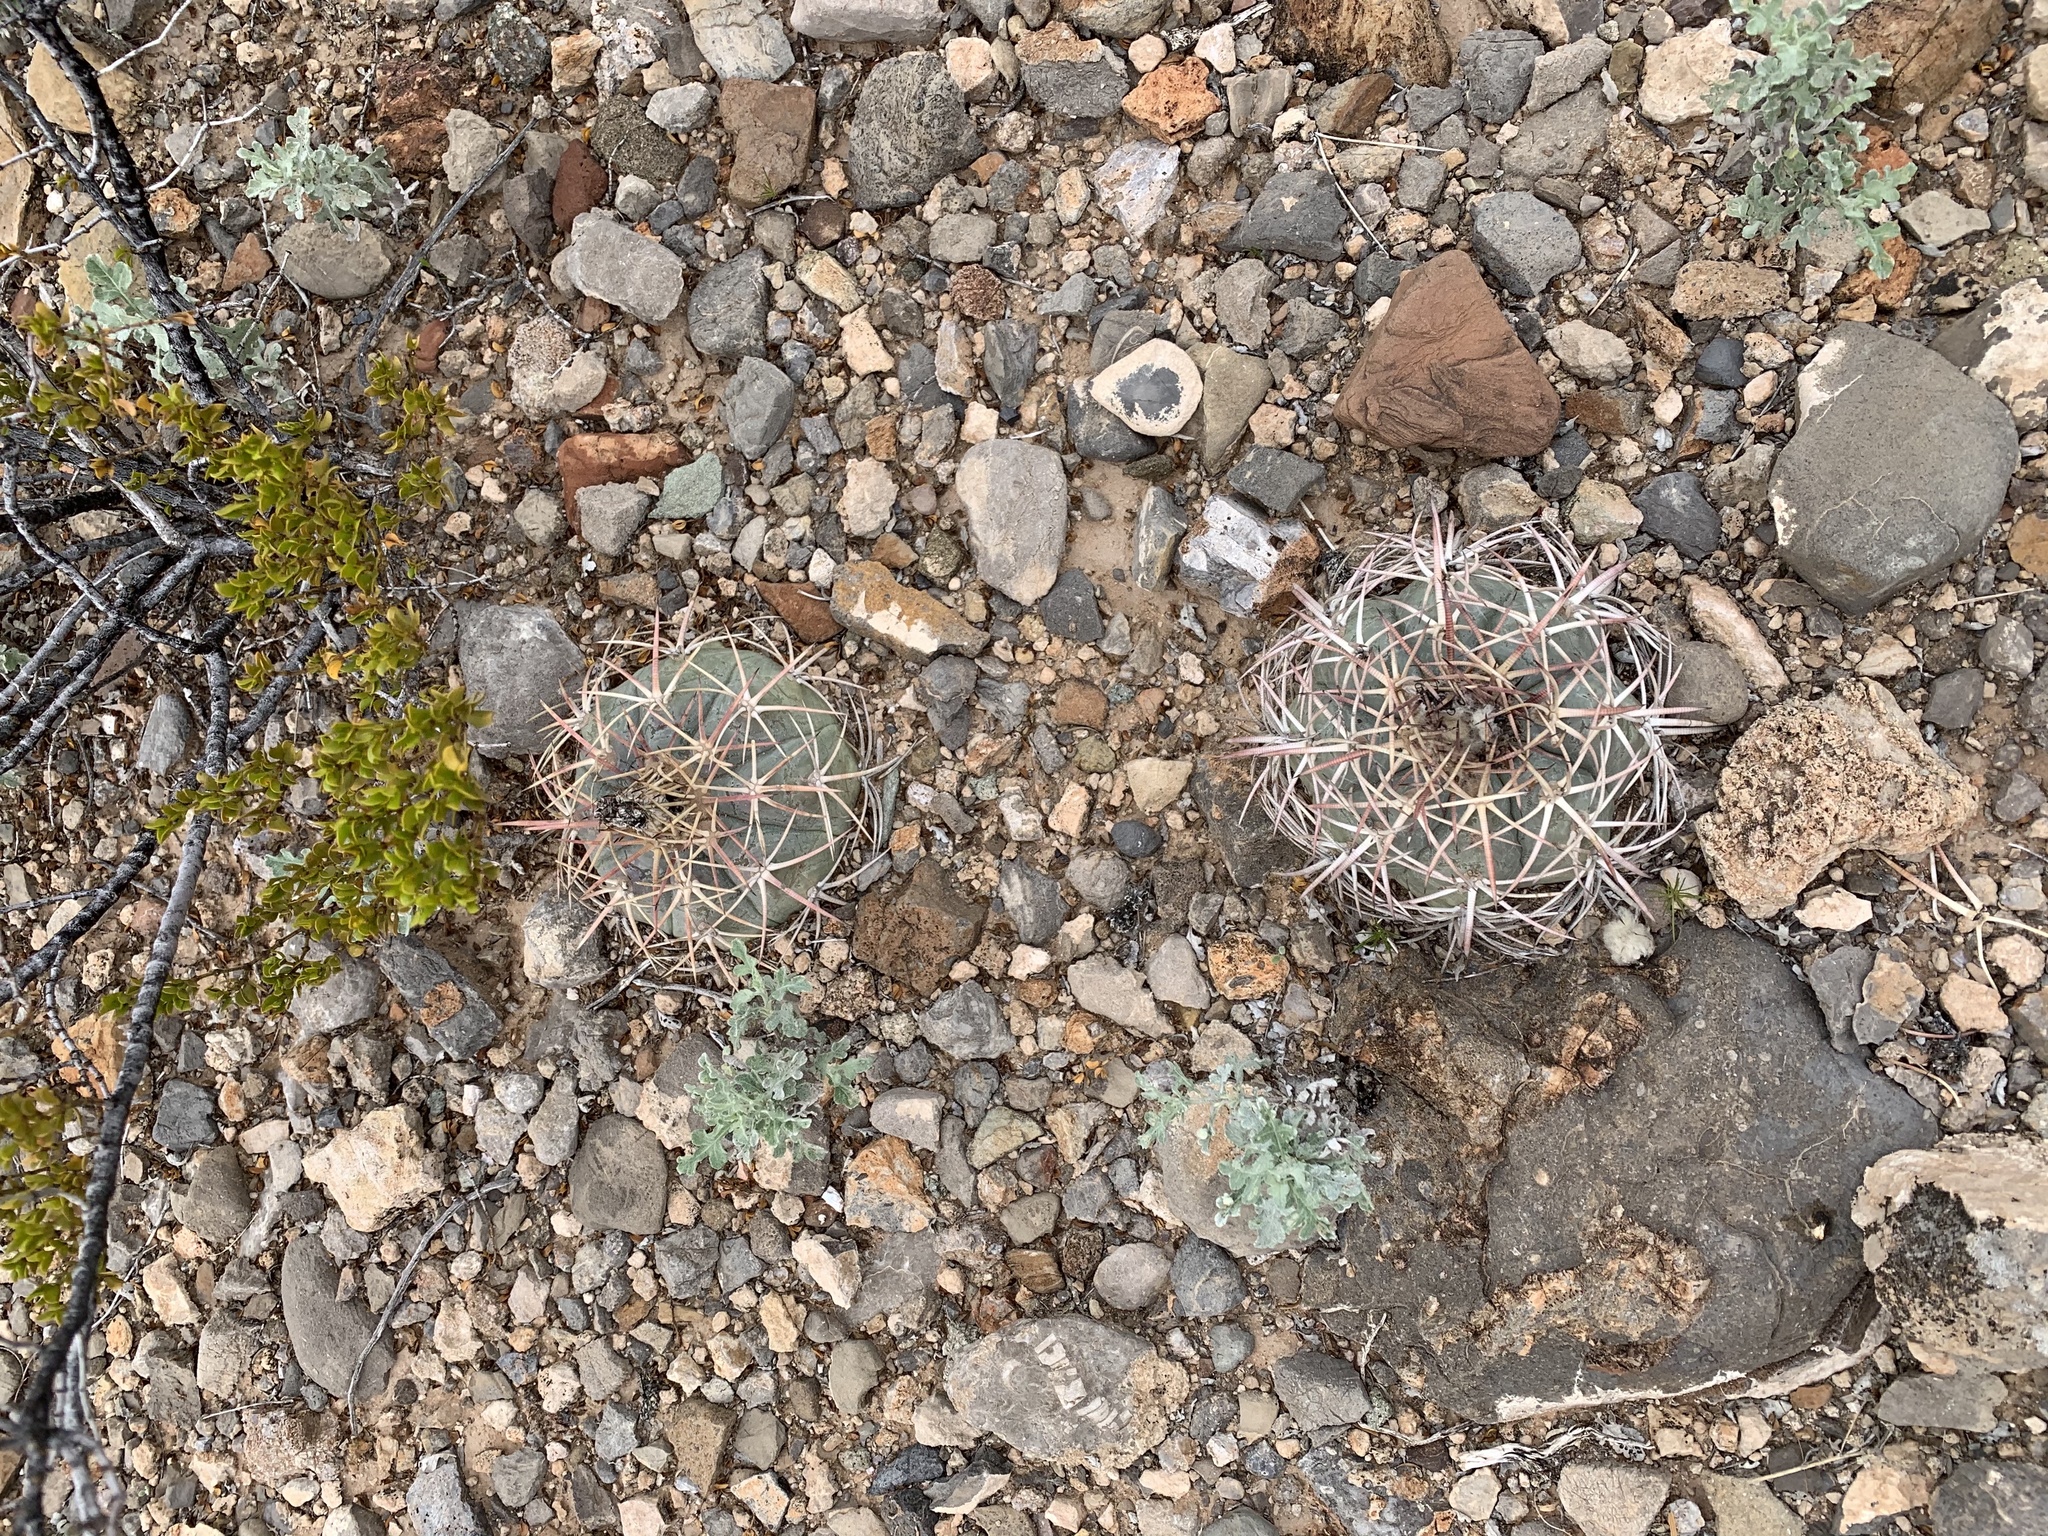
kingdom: Plantae
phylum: Tracheophyta
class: Magnoliopsida
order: Caryophyllales
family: Cactaceae
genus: Echinocactus
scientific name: Echinocactus horizonthalonius
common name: Devilshead
